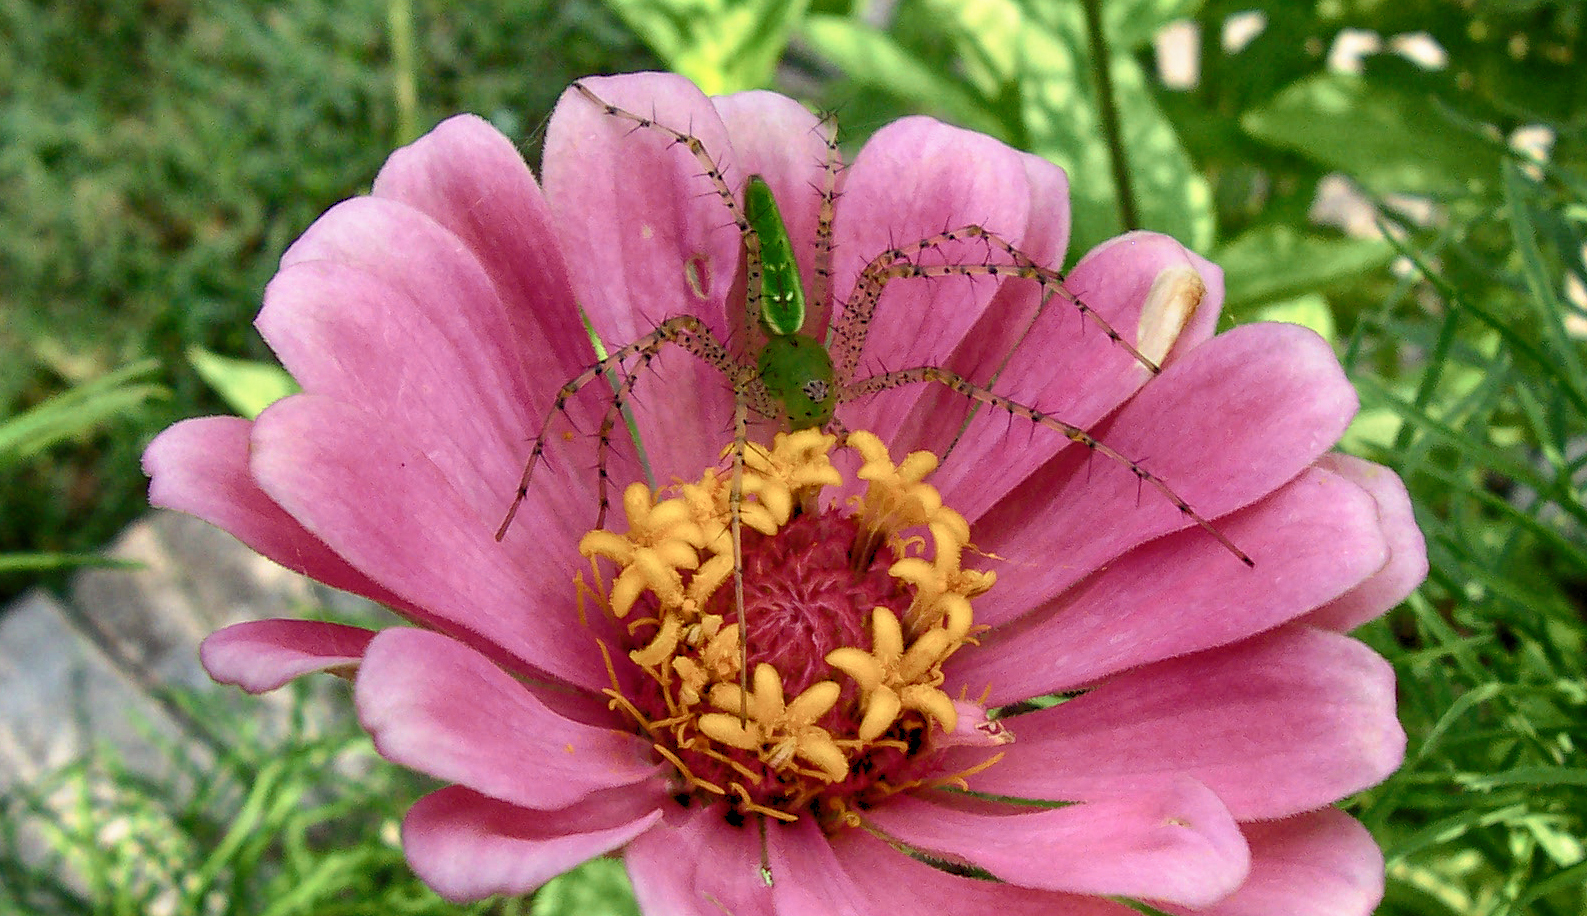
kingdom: Animalia
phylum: Arthropoda
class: Arachnida
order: Araneae
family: Oxyopidae
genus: Peucetia
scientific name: Peucetia viridans
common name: Lynx spiders
